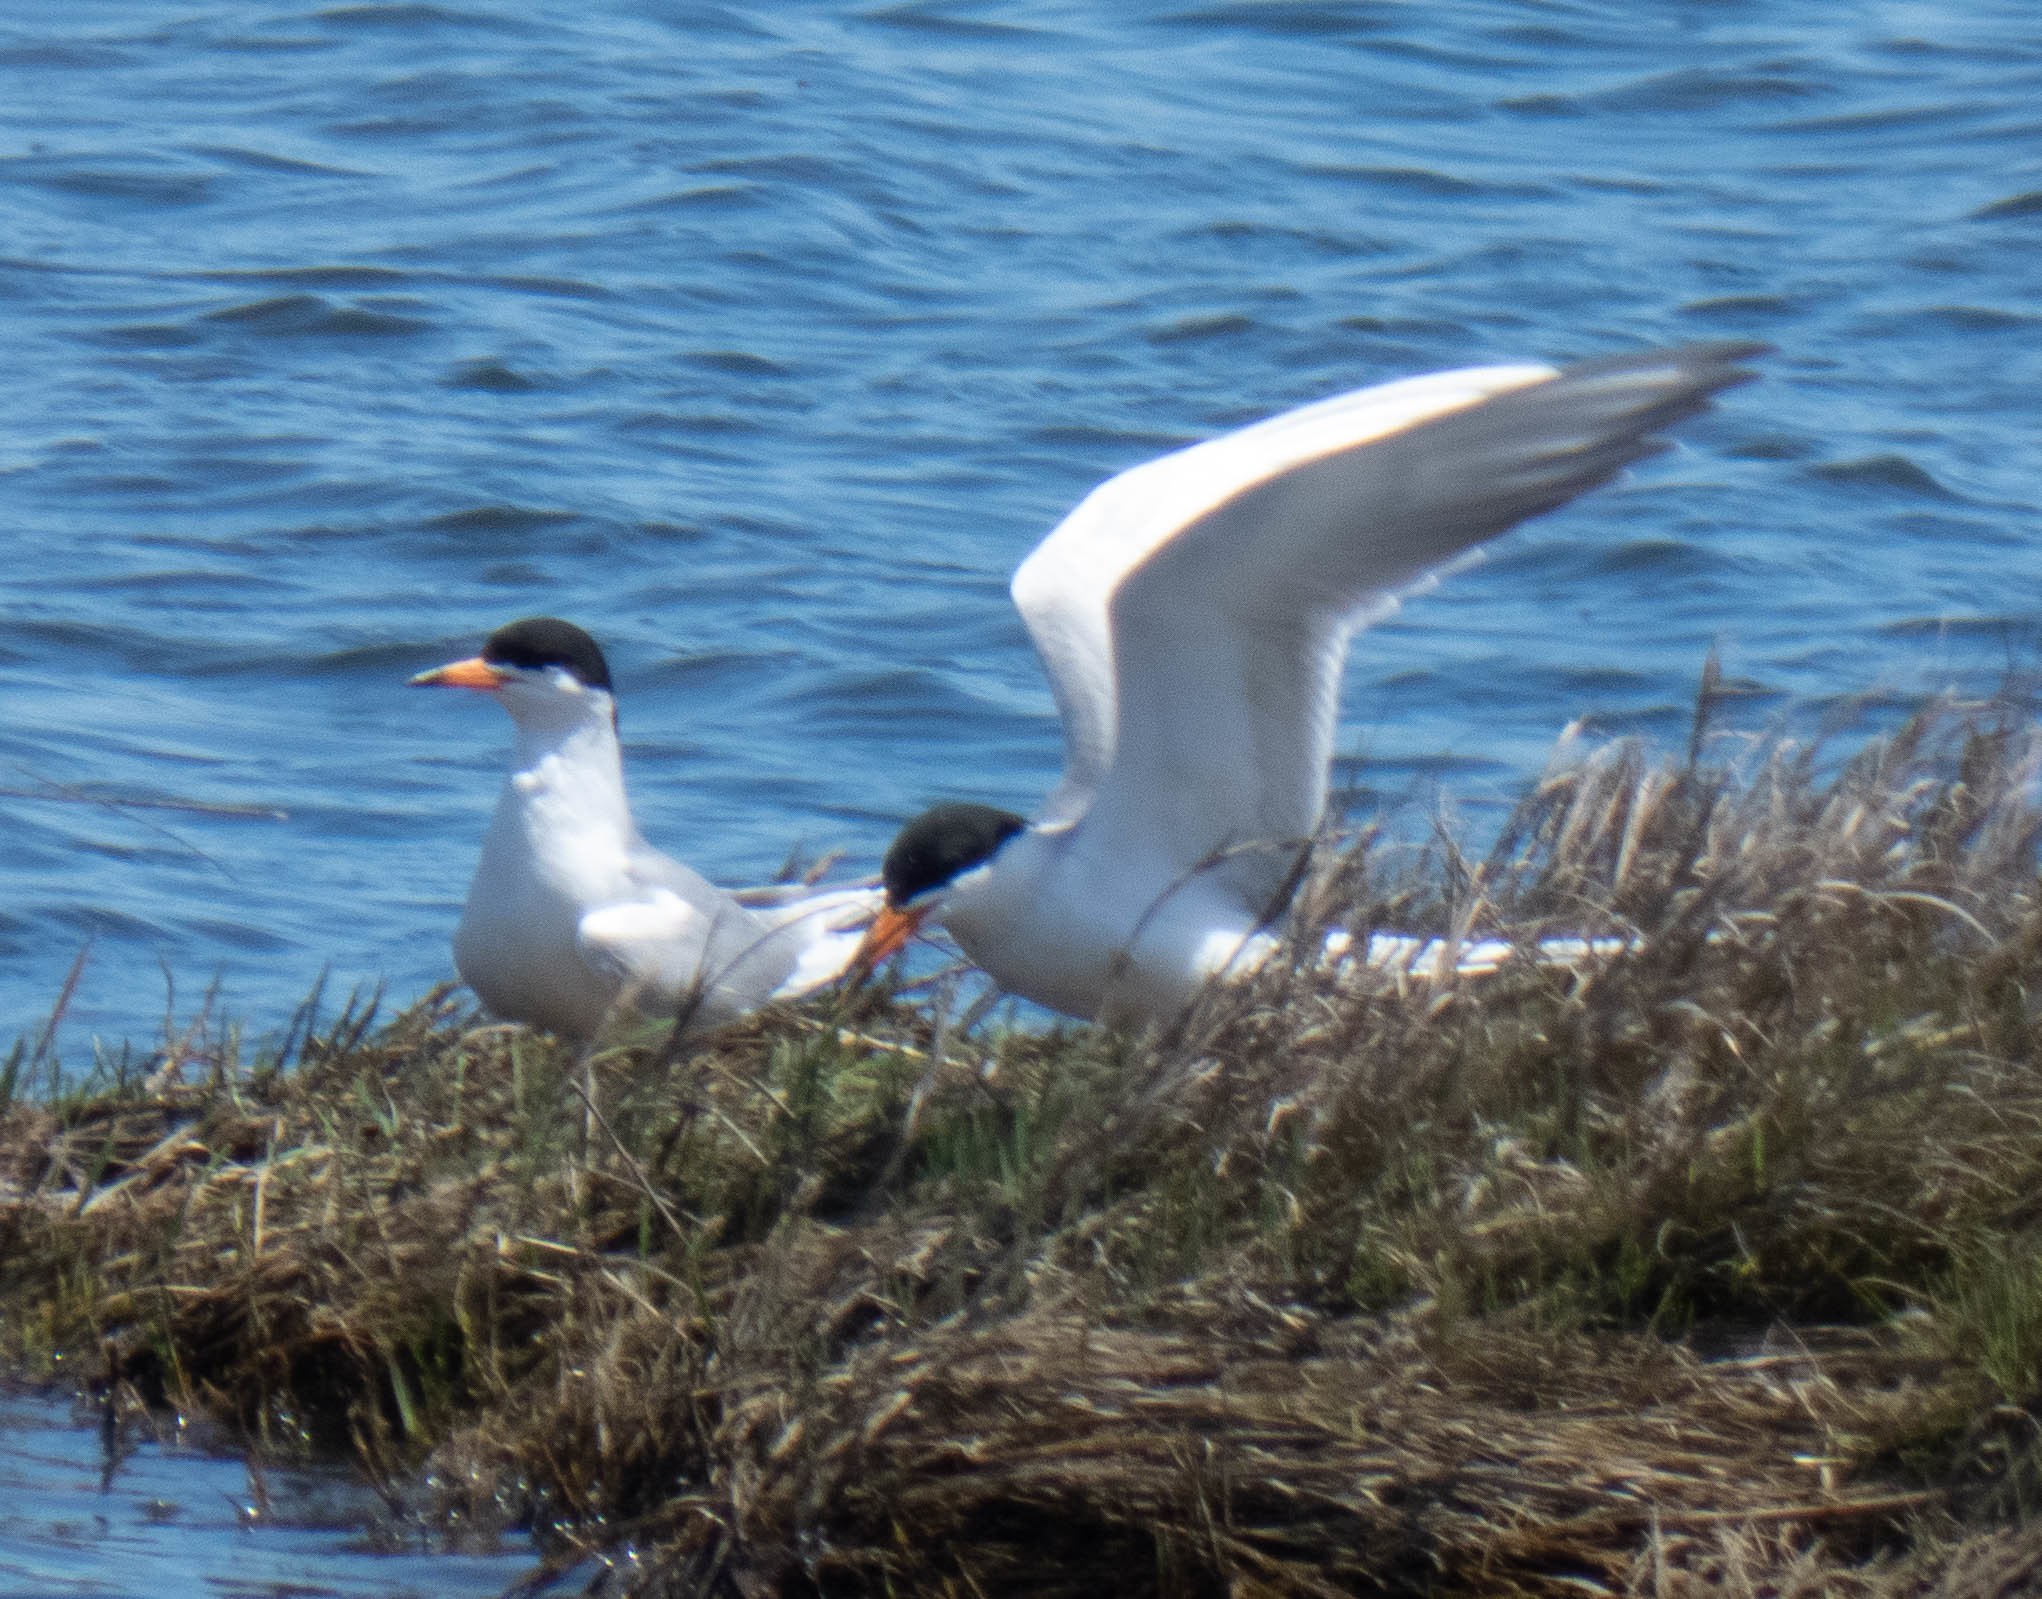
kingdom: Animalia
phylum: Chordata
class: Aves
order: Charadriiformes
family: Laridae
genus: Sterna
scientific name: Sterna forsteri
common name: Forster's tern
